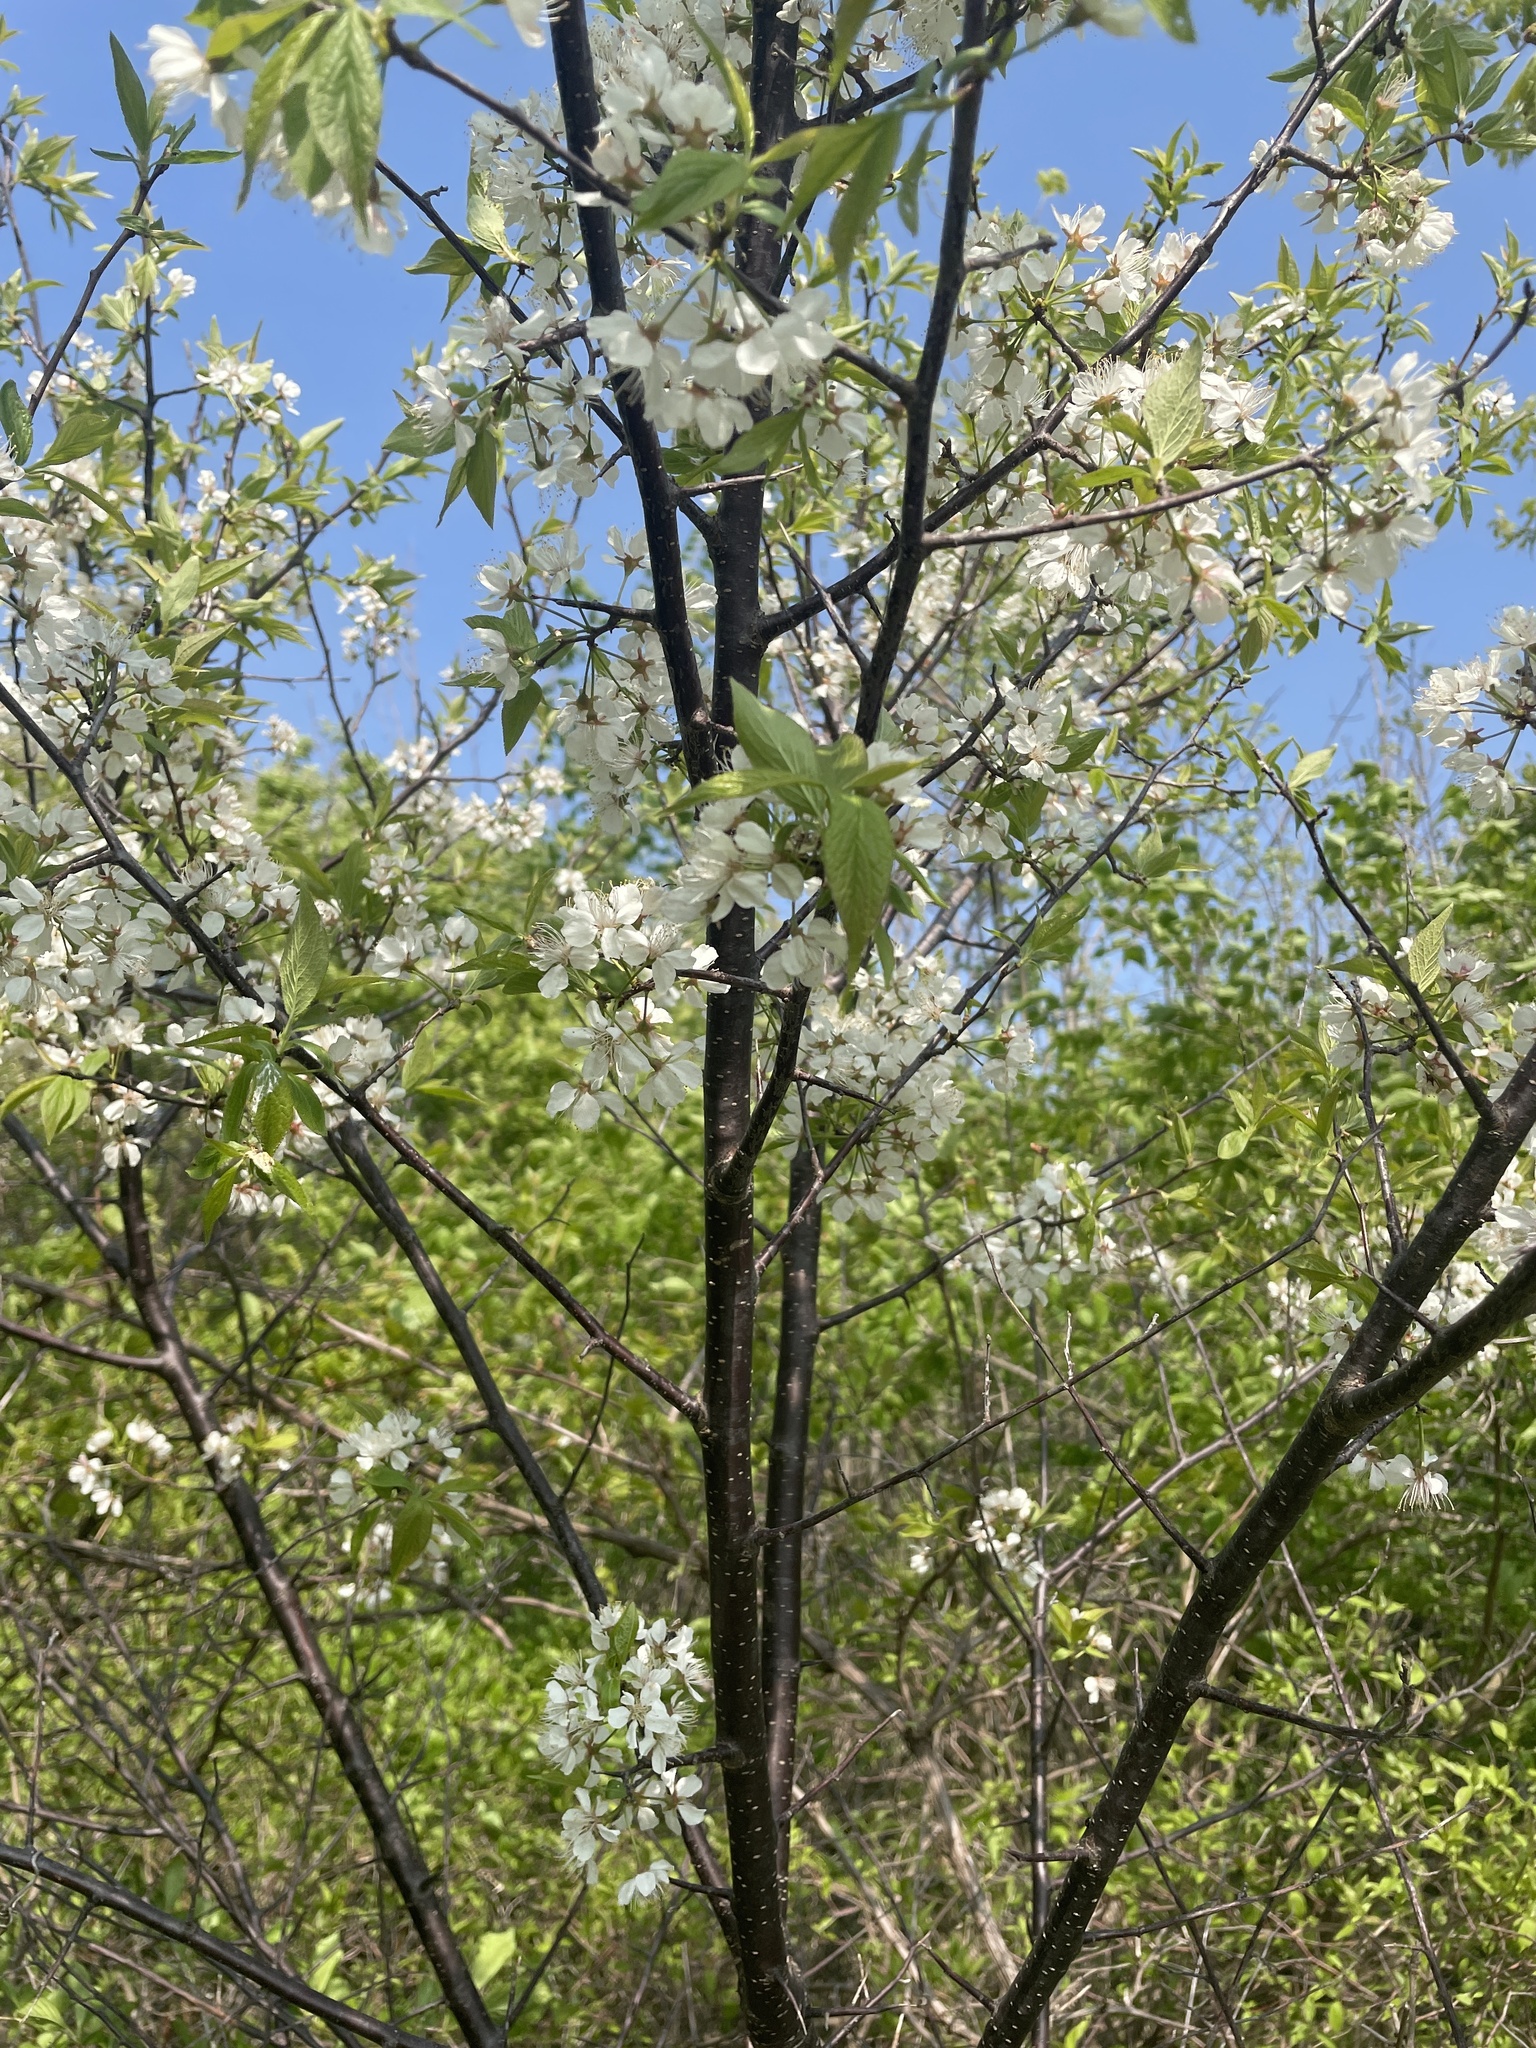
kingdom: Plantae
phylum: Tracheophyta
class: Magnoliopsida
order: Rosales
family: Rosaceae
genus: Prunus
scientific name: Prunus americana
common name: American plum
